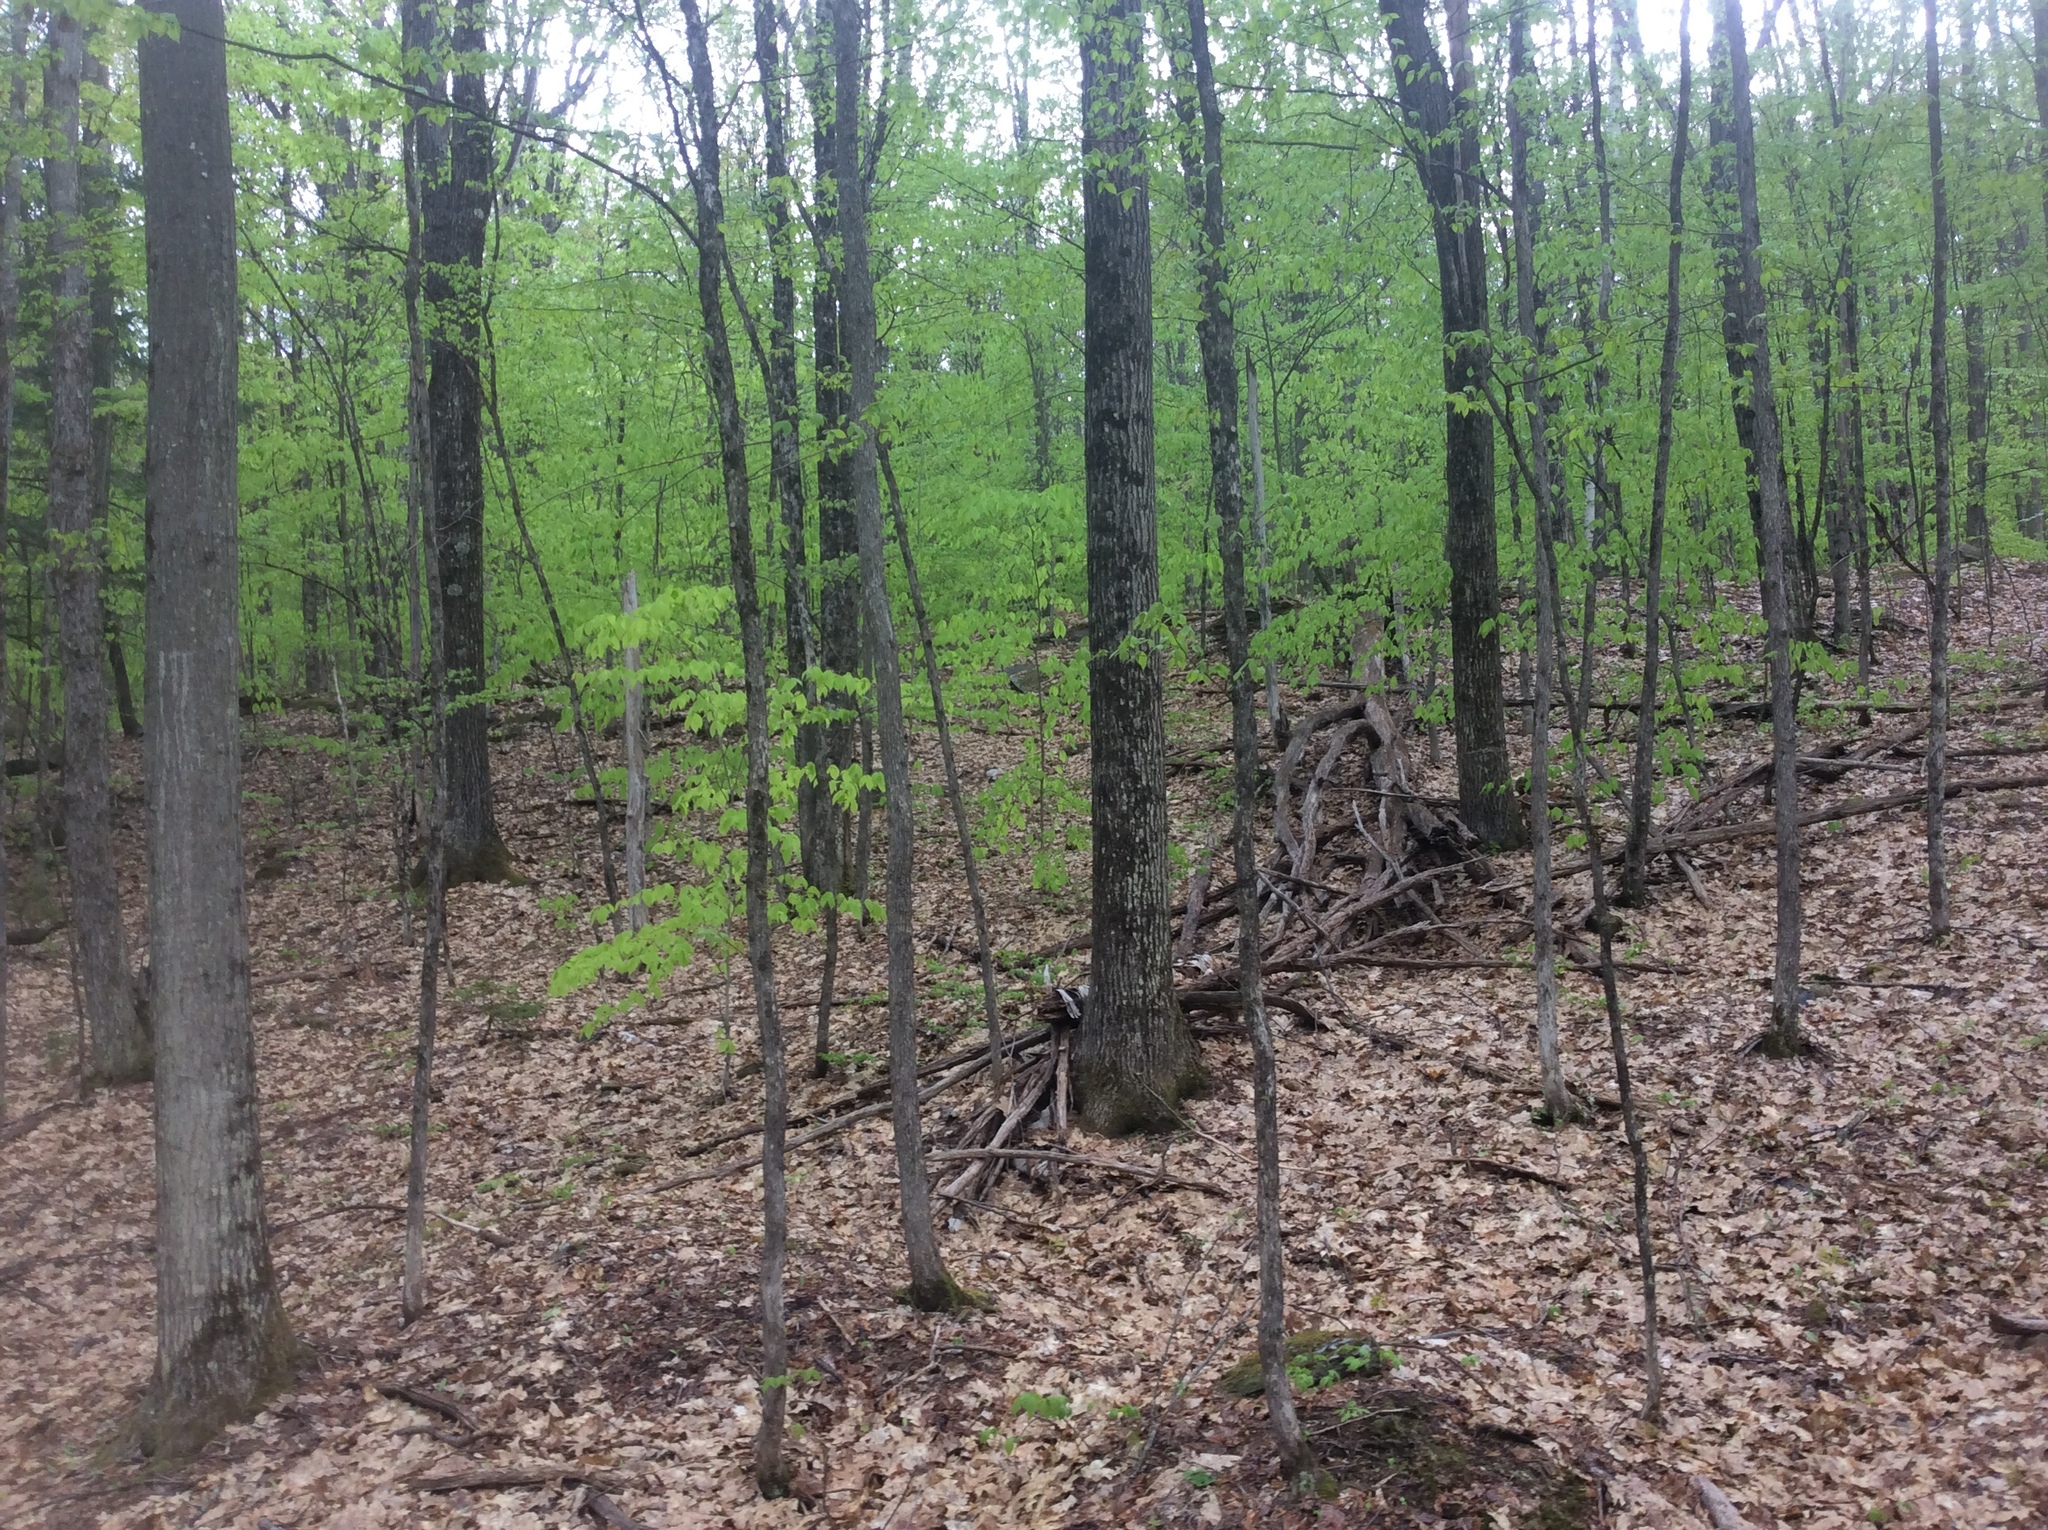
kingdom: Plantae
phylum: Tracheophyta
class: Magnoliopsida
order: Fagales
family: Fagaceae
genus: Quercus
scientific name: Quercus rubra
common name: Red oak
